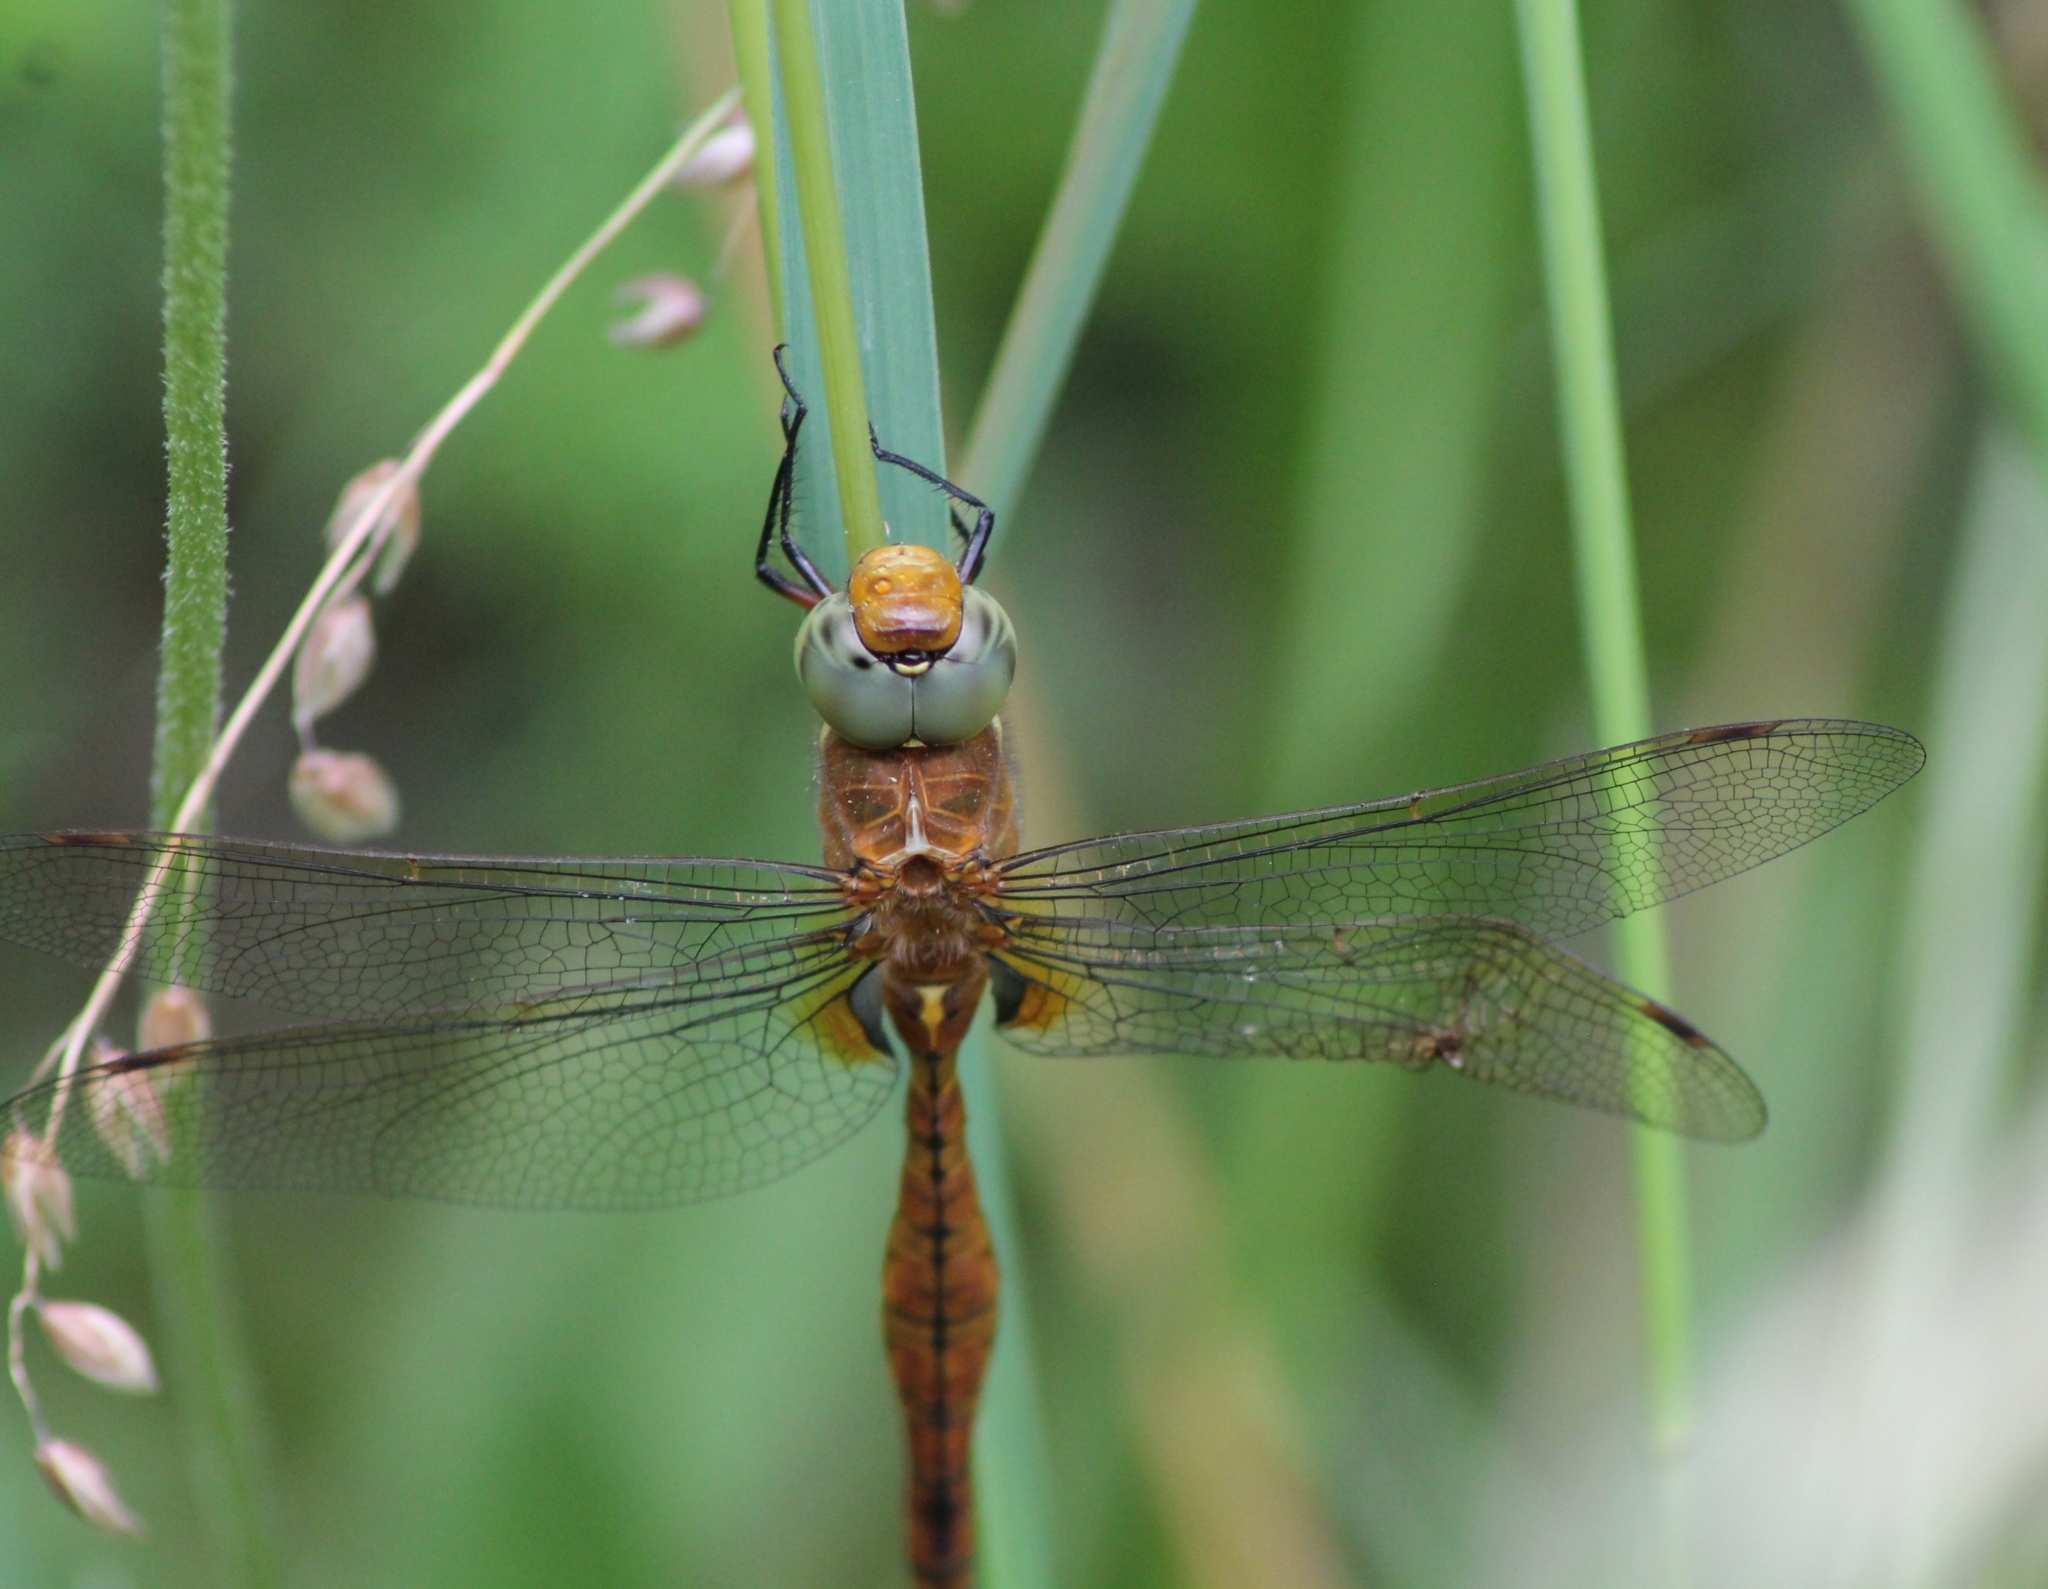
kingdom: Animalia
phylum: Arthropoda
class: Insecta
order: Odonata
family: Aeshnidae
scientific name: Aeshnidae
